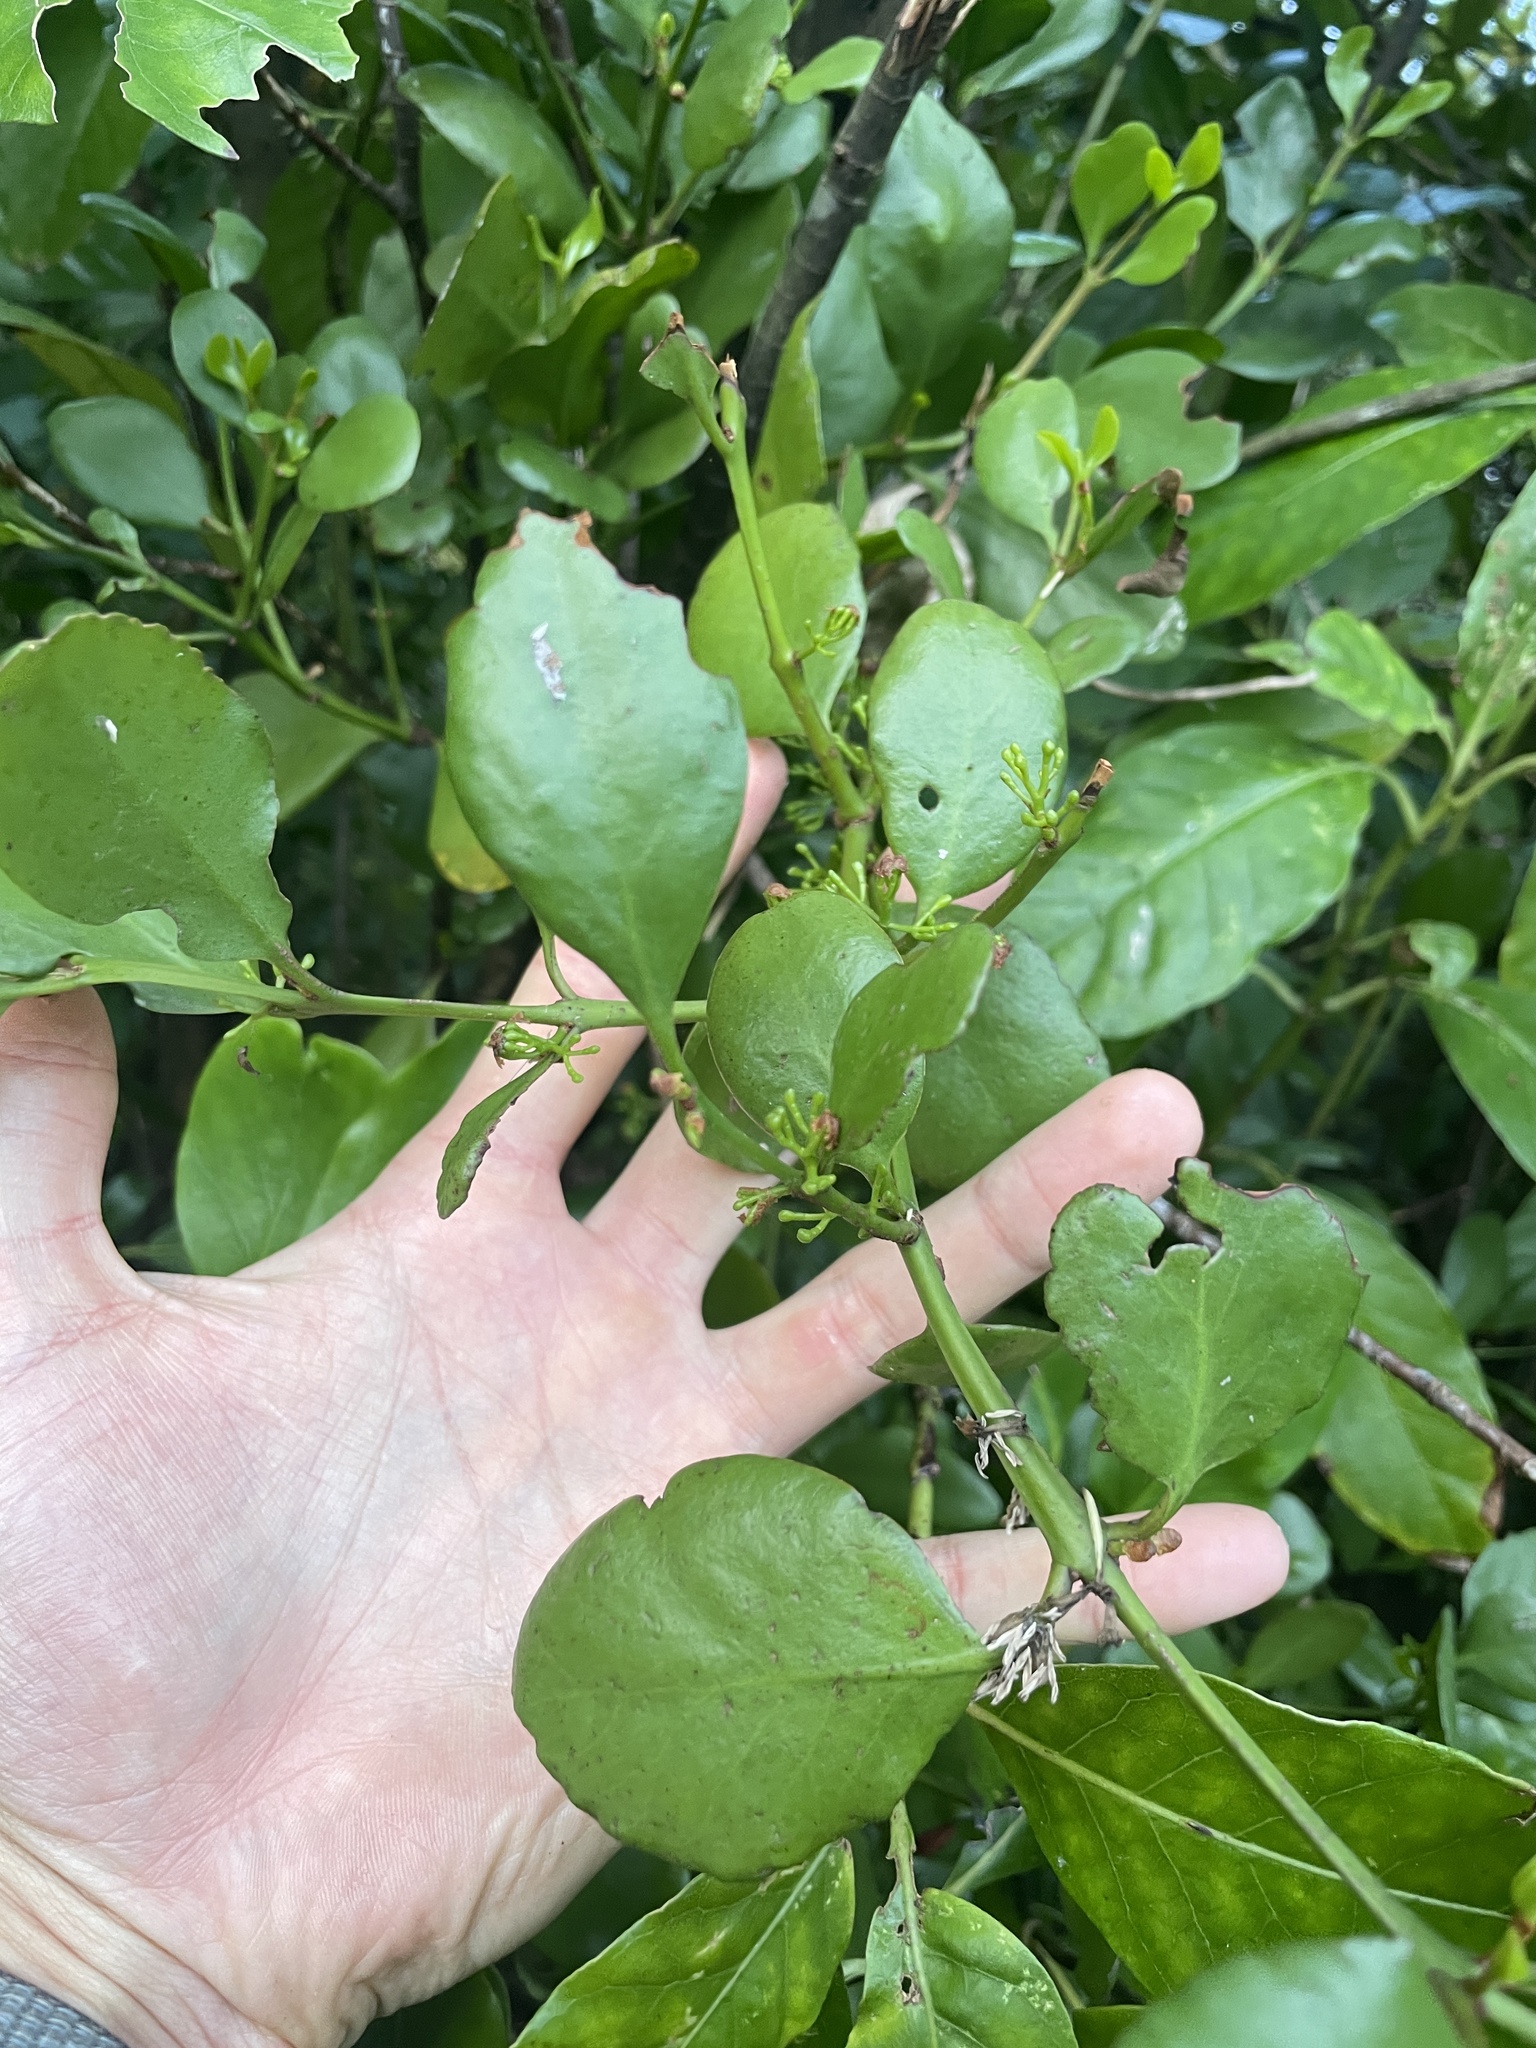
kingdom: Plantae
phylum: Tracheophyta
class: Magnoliopsida
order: Santalales
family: Loranthaceae
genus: Ileostylus
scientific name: Ileostylus micranthus
